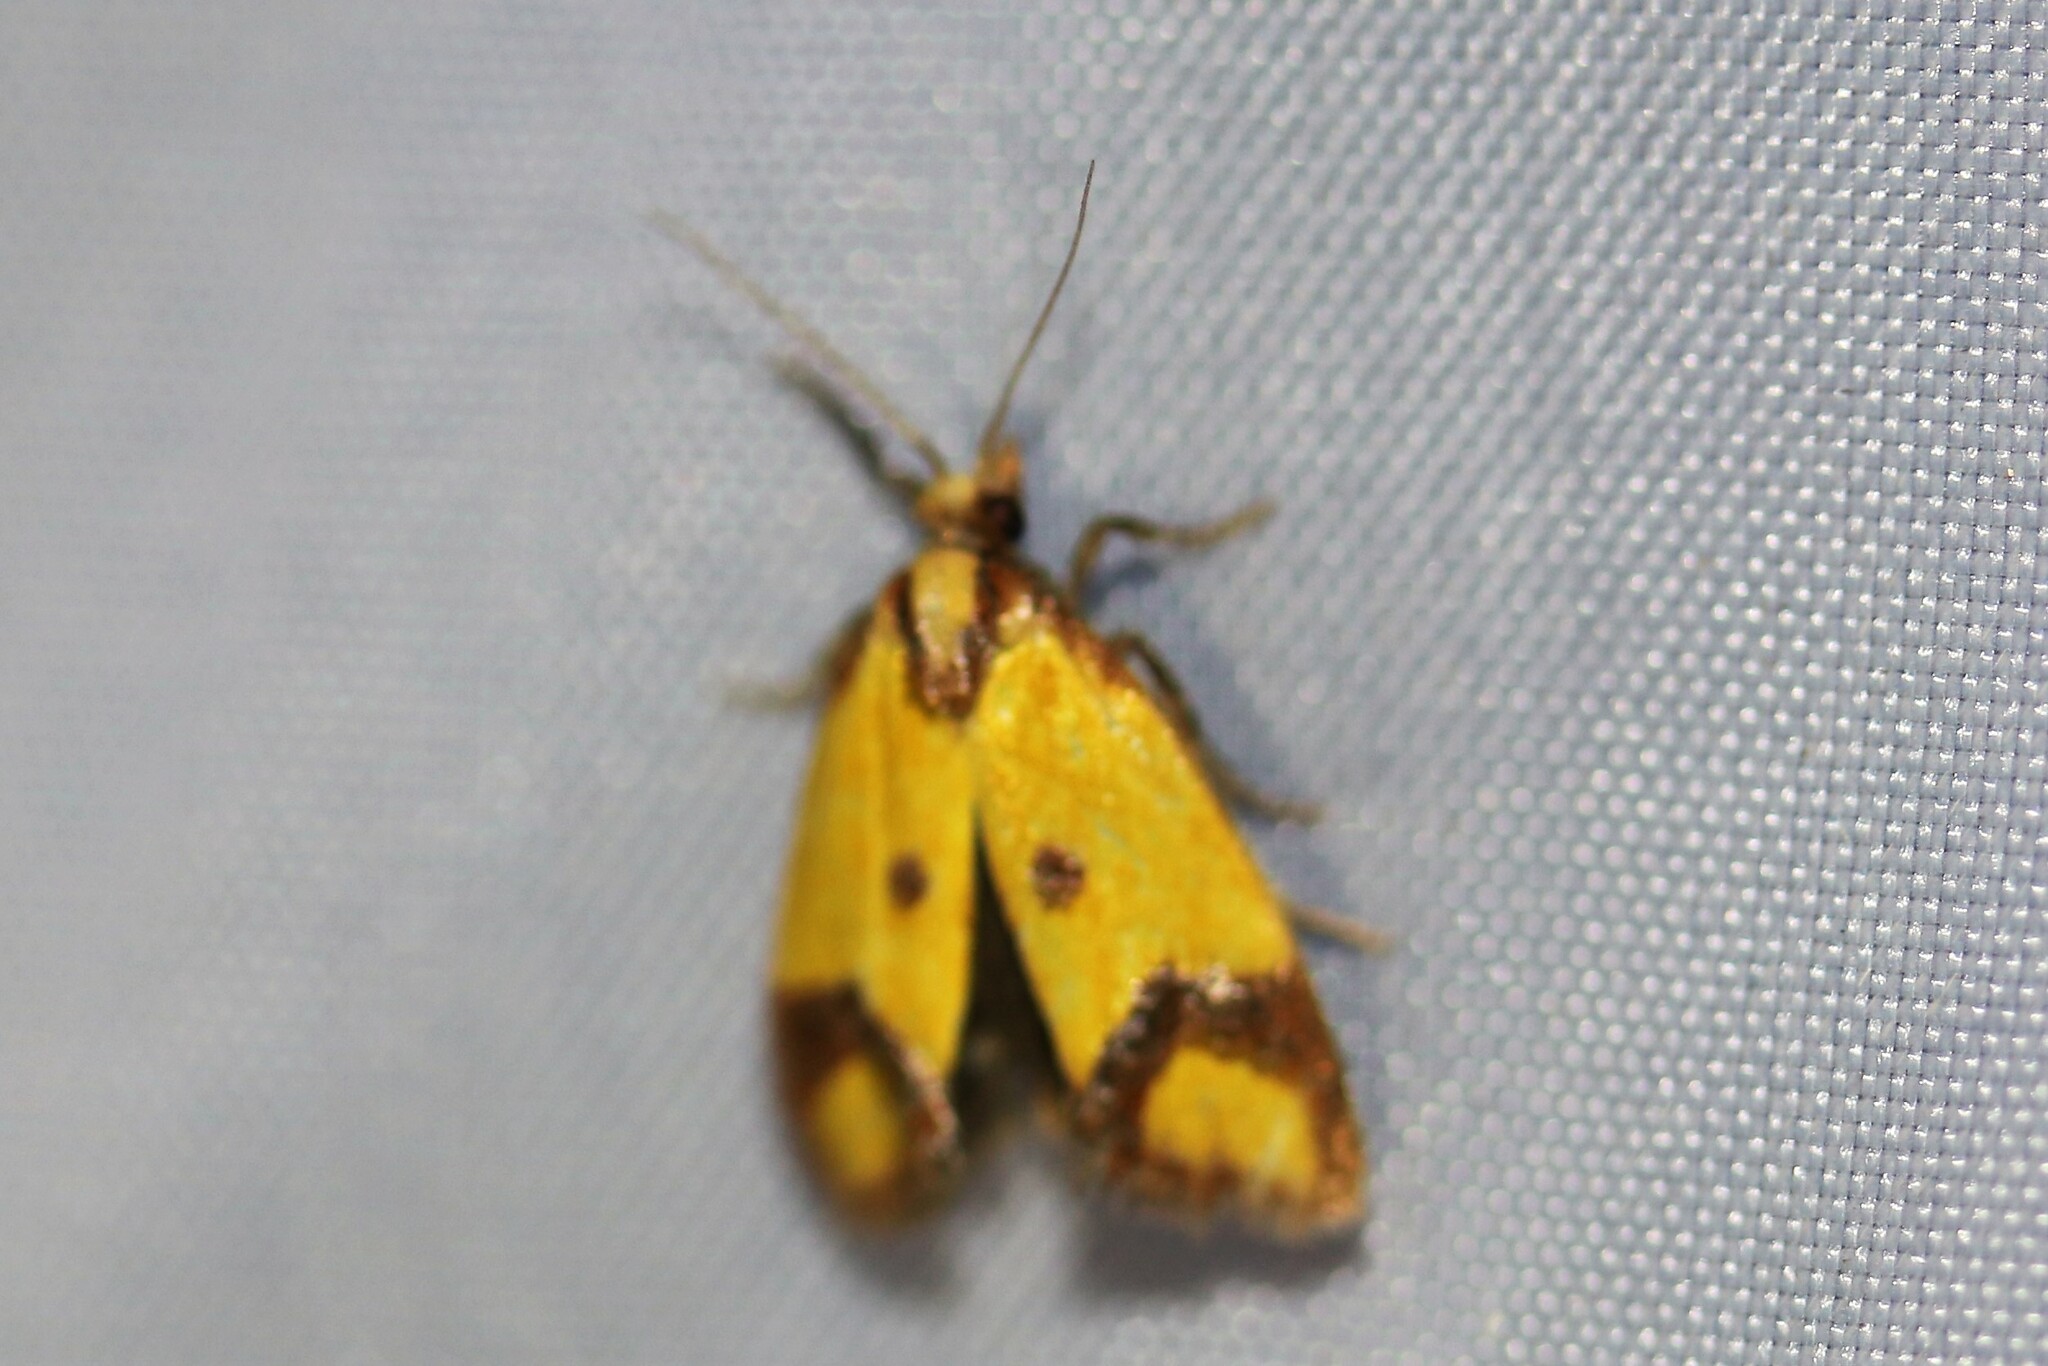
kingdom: Animalia
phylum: Arthropoda
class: Insecta
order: Lepidoptera
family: Tortricidae
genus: Agapeta
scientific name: Agapeta zoegana
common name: Sulfur knapweed root moth
